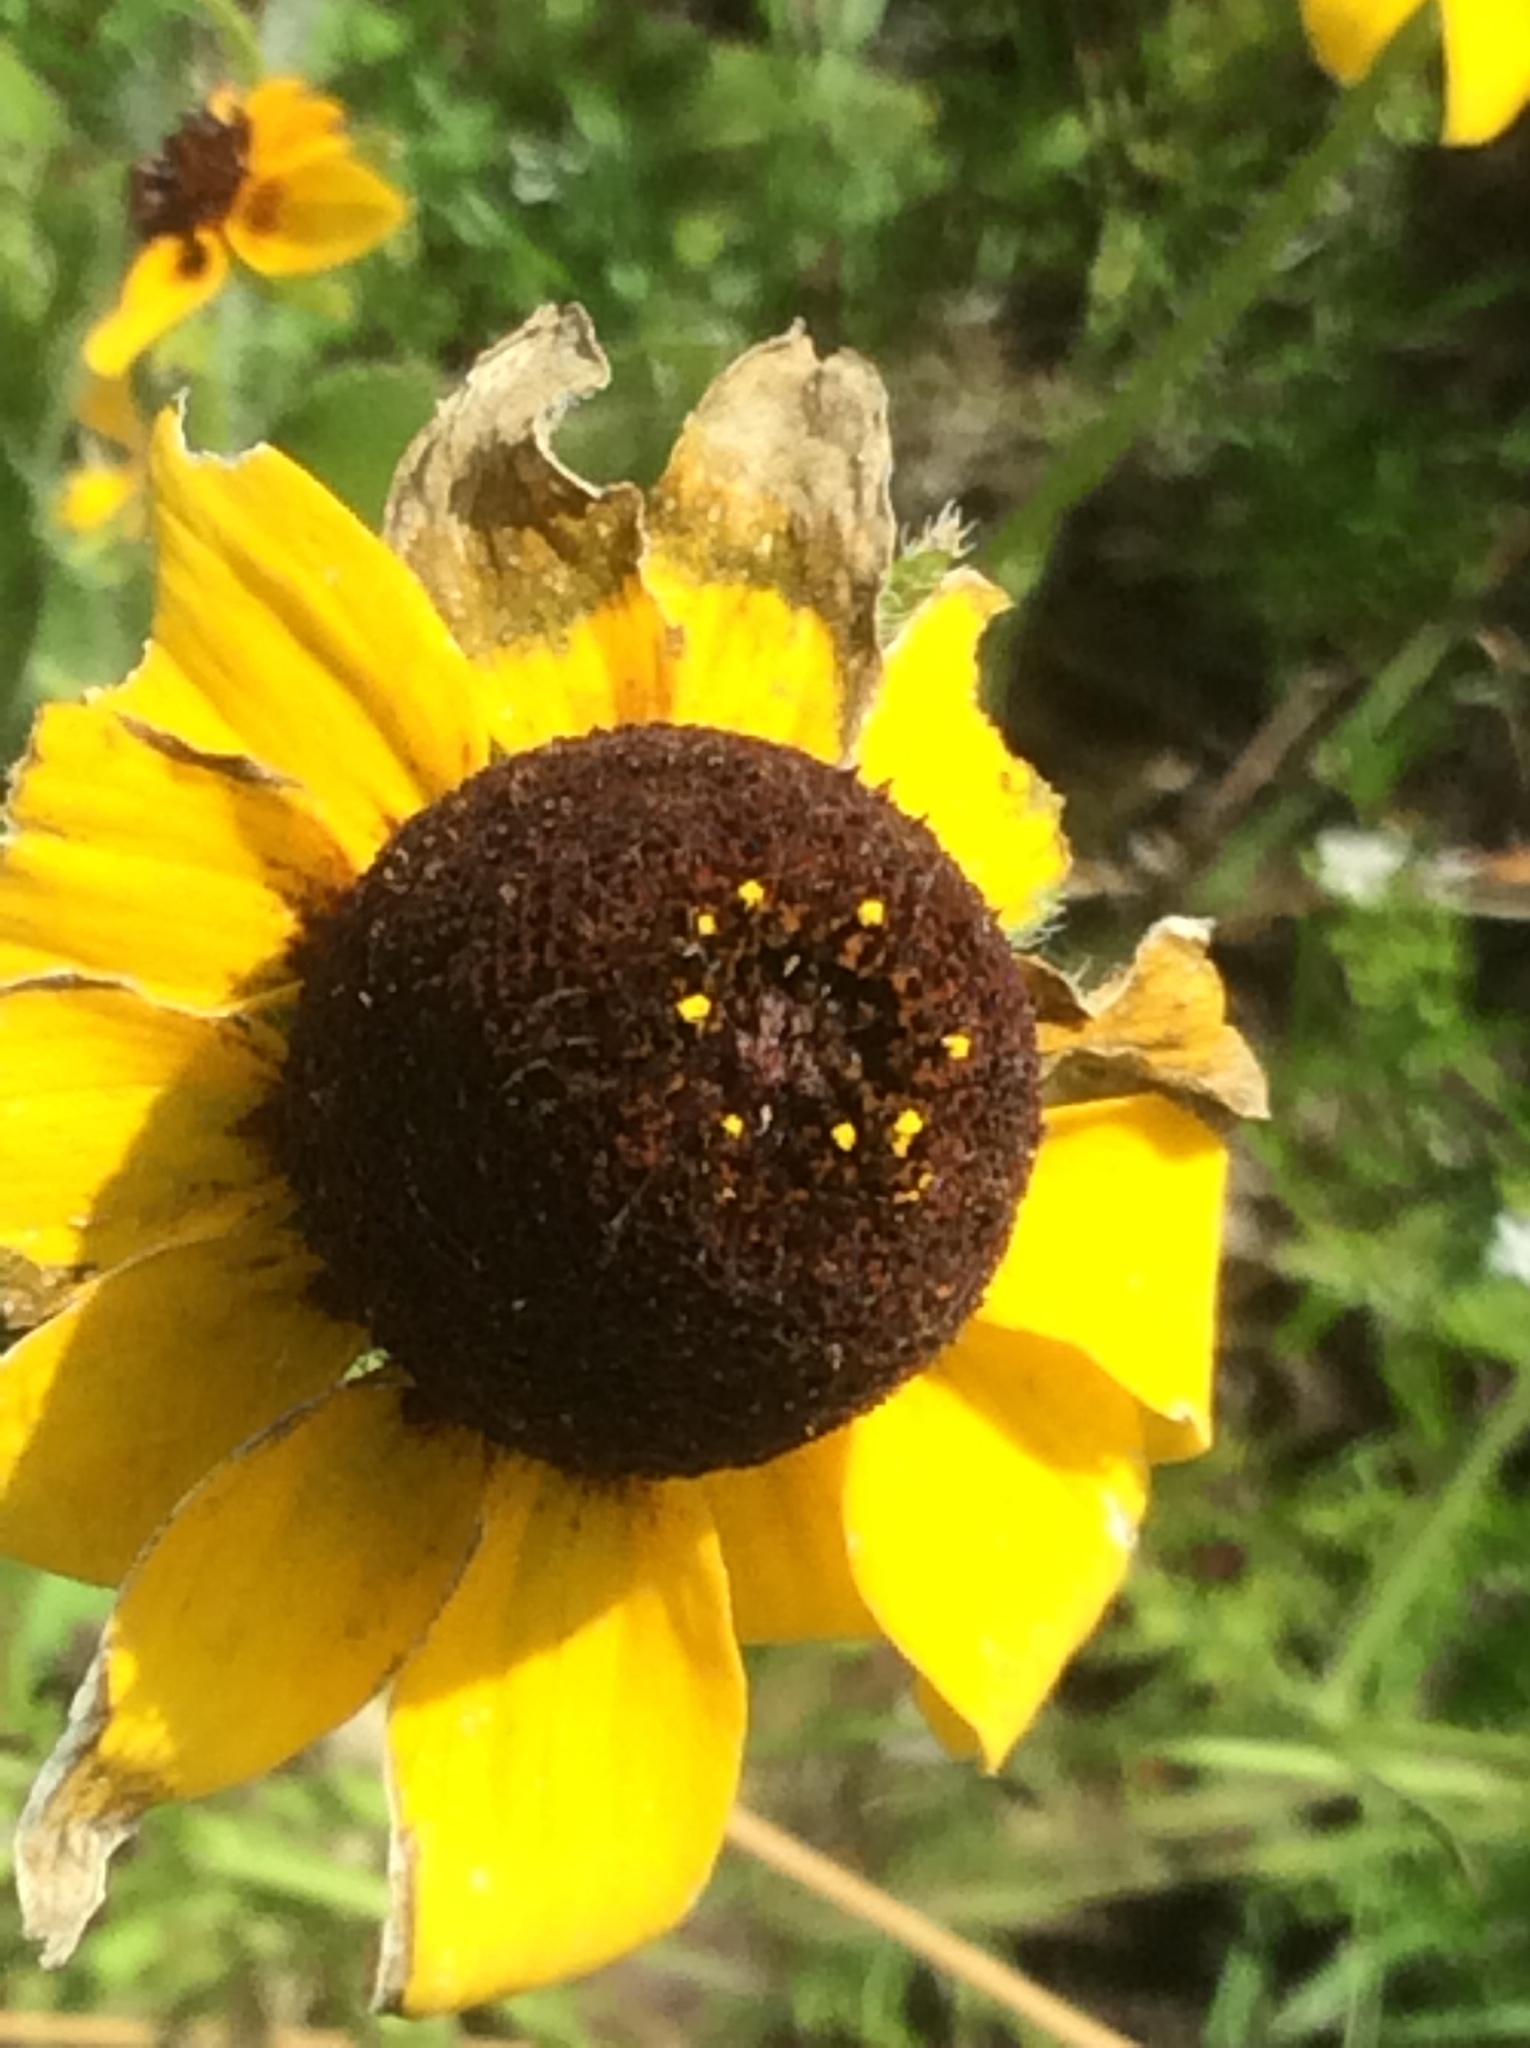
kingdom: Plantae
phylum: Tracheophyta
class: Magnoliopsida
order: Asterales
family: Asteraceae
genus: Rudbeckia
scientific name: Rudbeckia hirta
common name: Black-eyed-susan
